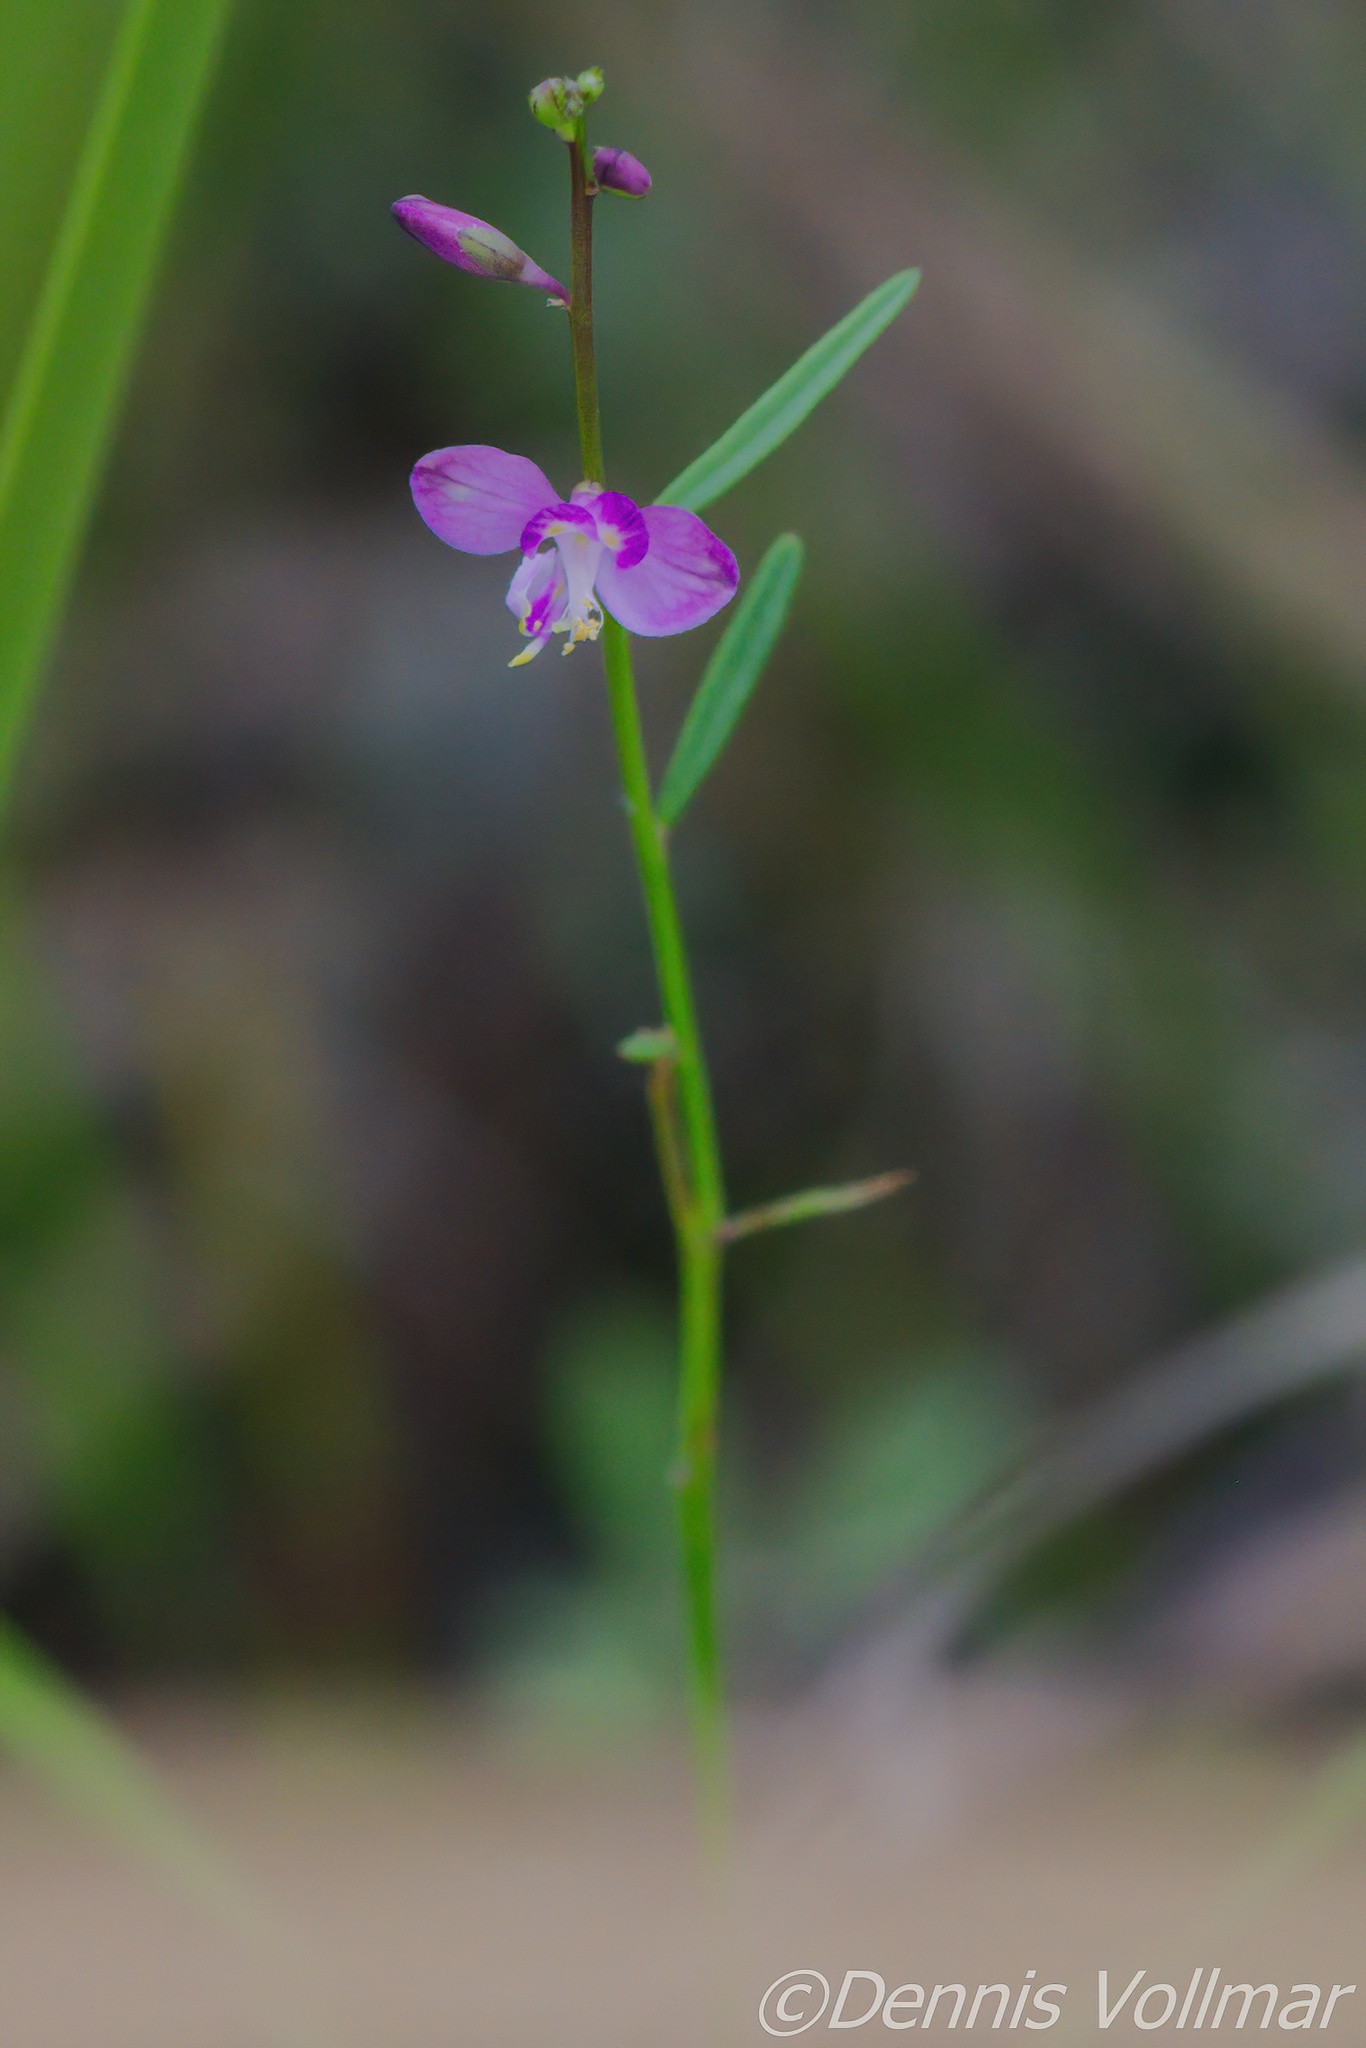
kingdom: Plantae
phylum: Tracheophyta
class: Magnoliopsida
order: Fabales
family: Polygalaceae
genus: Asemeia
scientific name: Asemeia grandiflora
